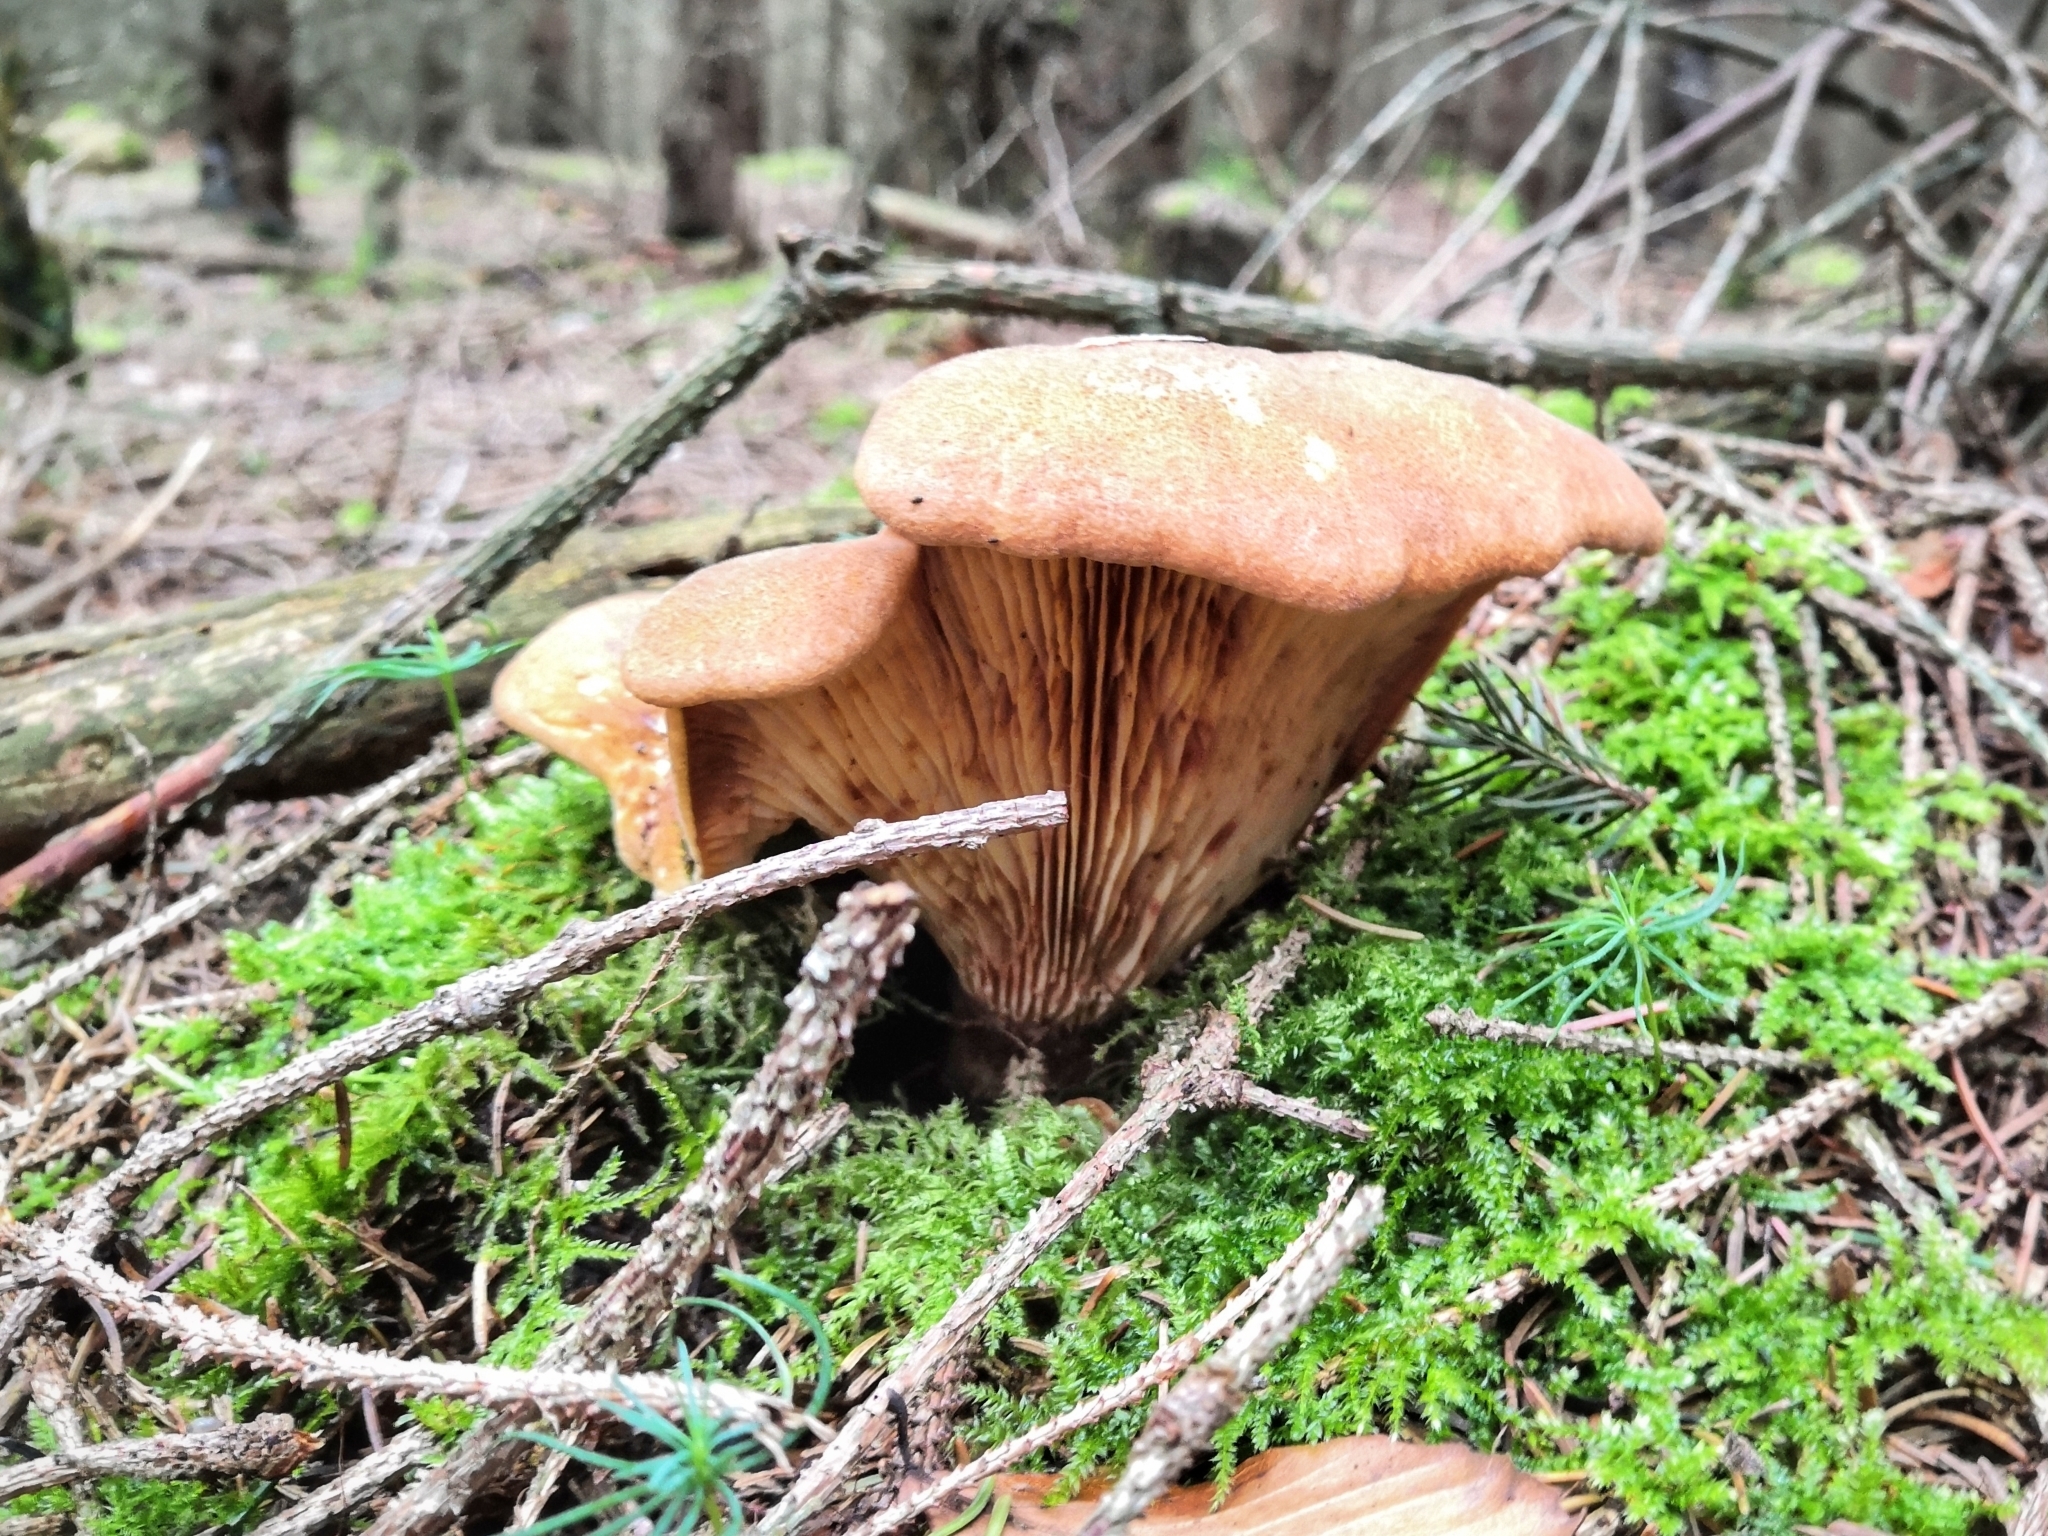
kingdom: Fungi
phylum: Basidiomycota
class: Agaricomycetes
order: Boletales
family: Tapinellaceae
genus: Tapinella
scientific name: Tapinella atrotomentosa
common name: Velvet rollrim
